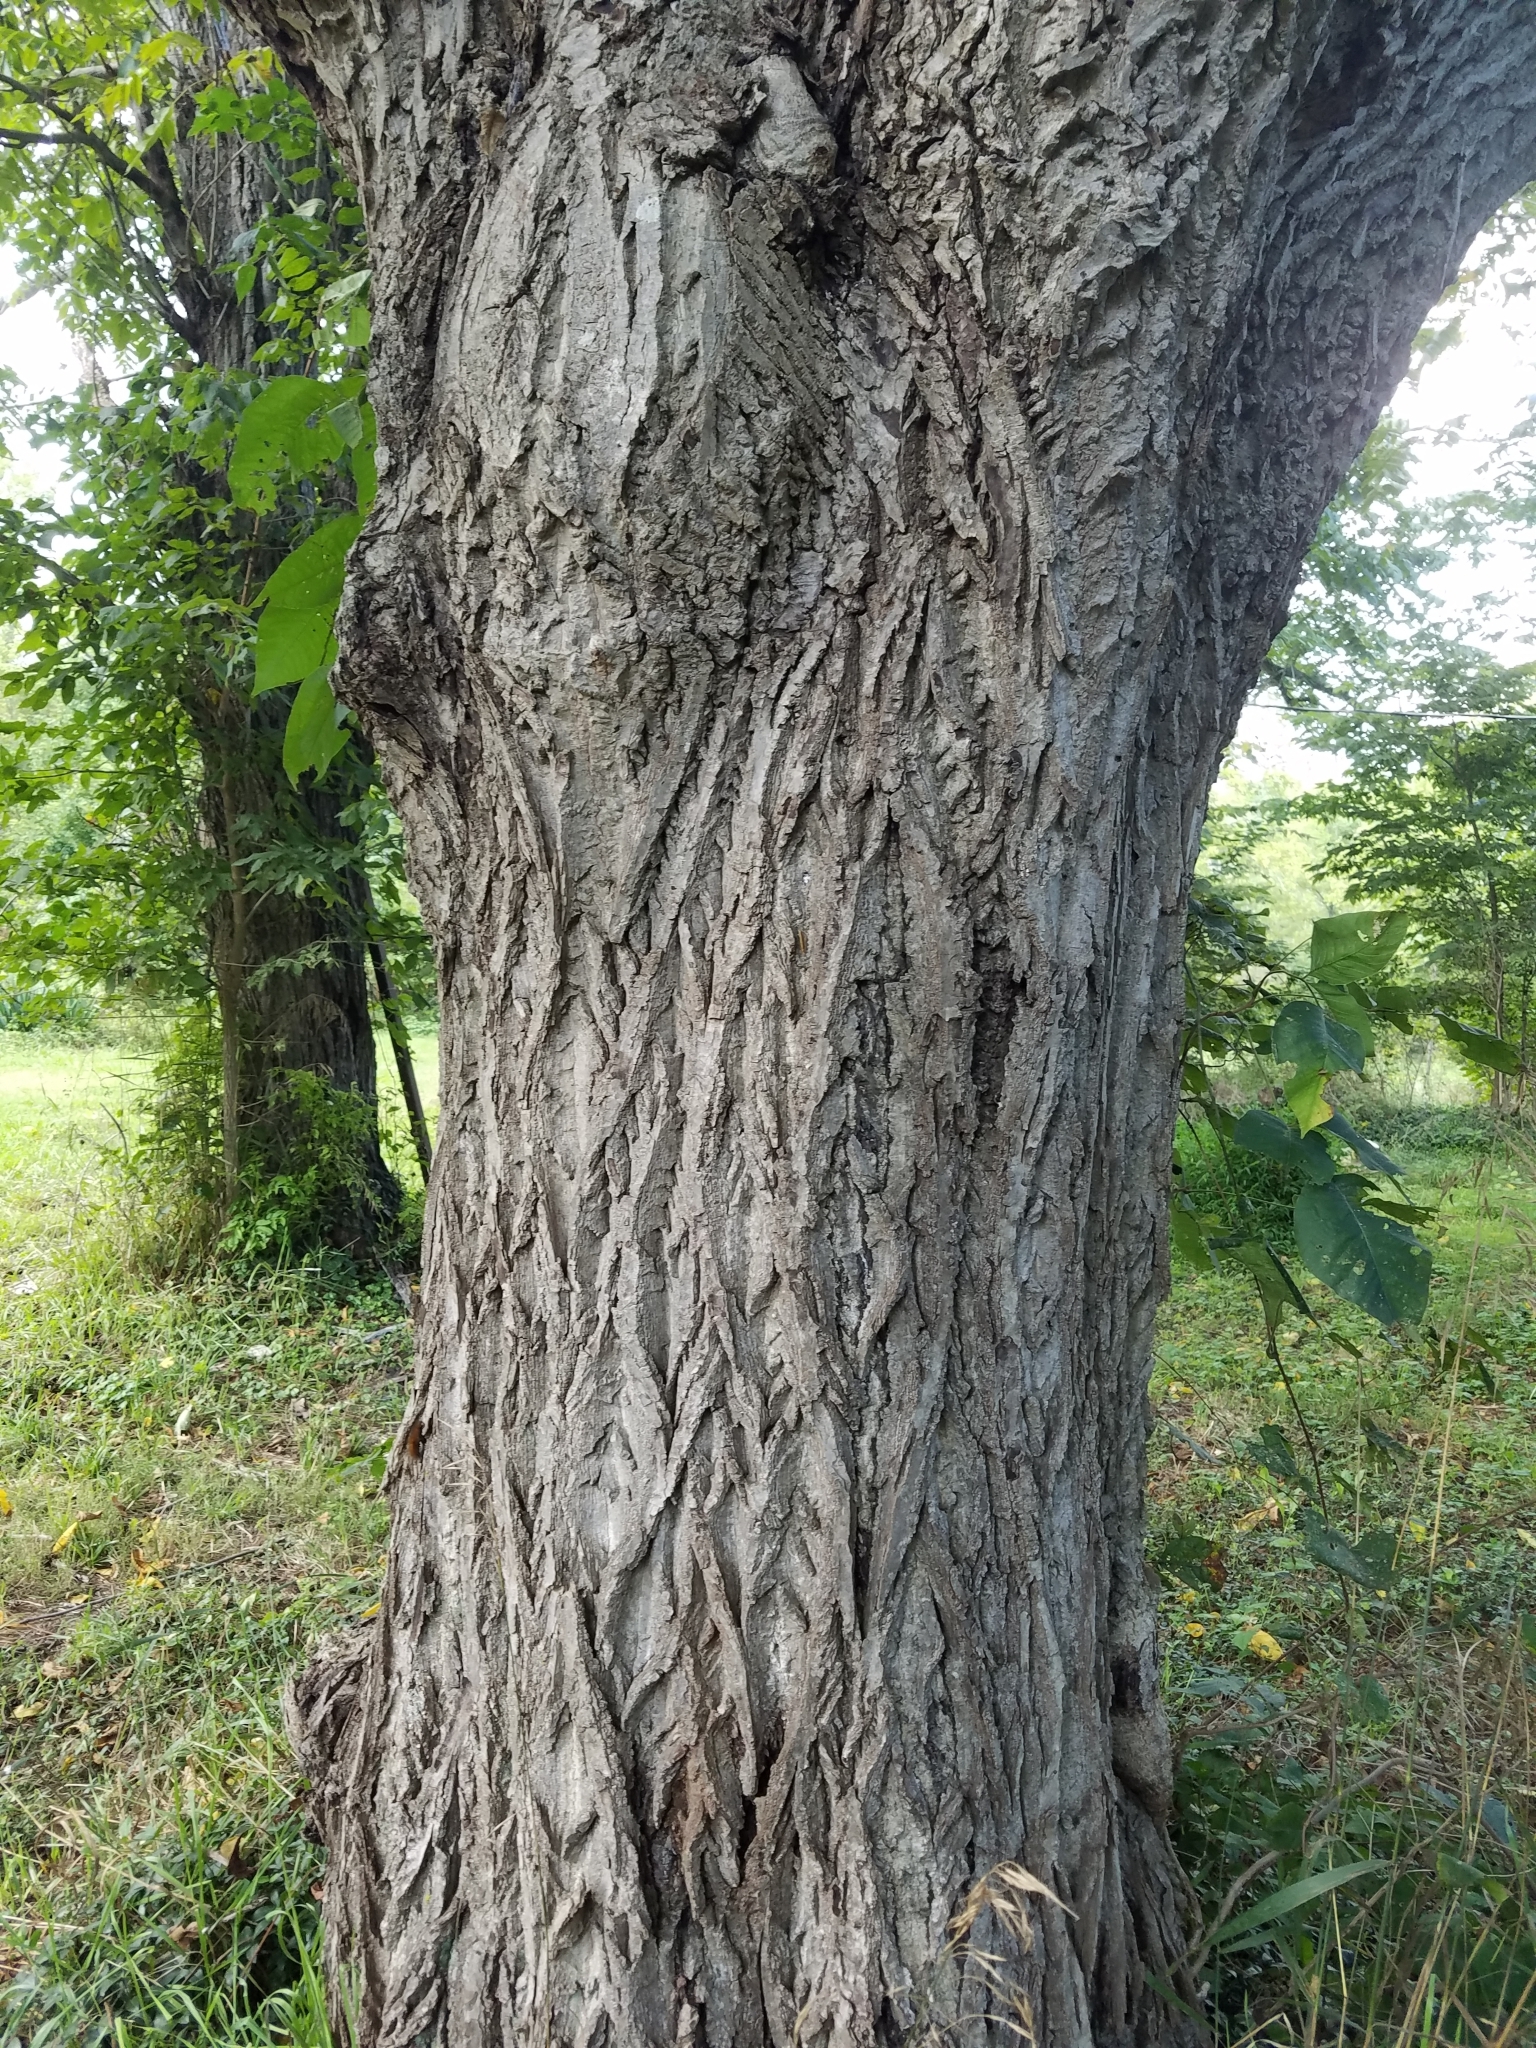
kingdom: Plantae
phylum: Tracheophyta
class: Magnoliopsida
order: Fagales
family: Juglandaceae
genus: Juglans
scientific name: Juglans cinerea
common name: Butternut
